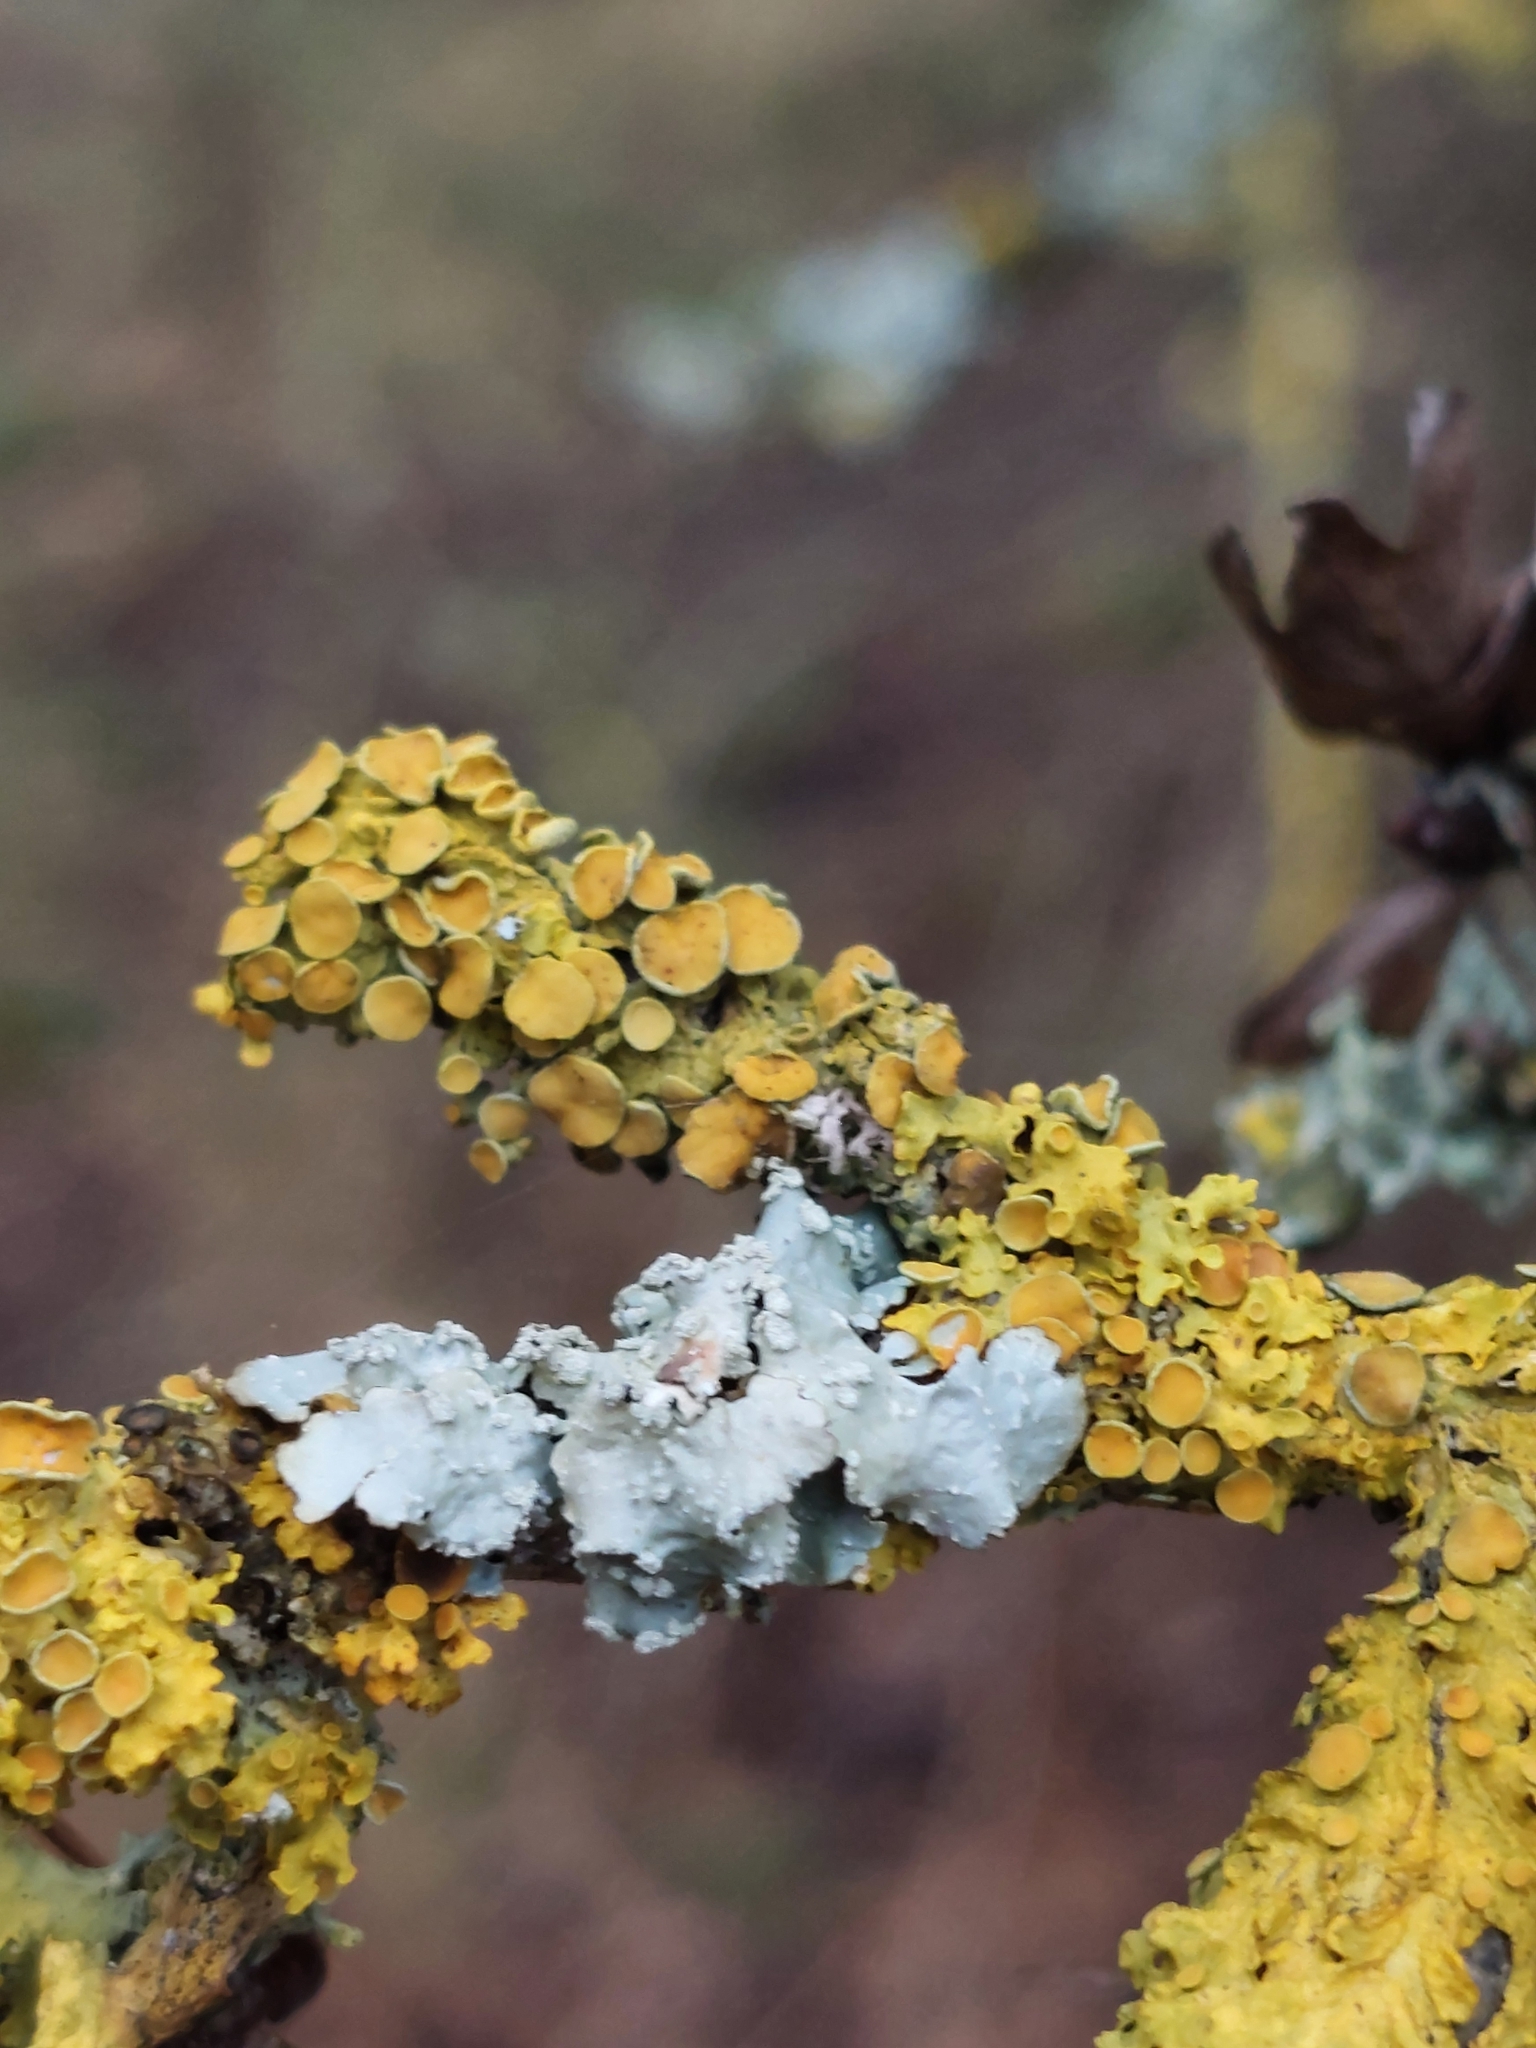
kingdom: Fungi
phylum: Ascomycota
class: Lecanoromycetes
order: Teloschistales
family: Teloschistaceae
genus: Xanthoria
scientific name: Xanthoria parietina
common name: Common orange lichen
